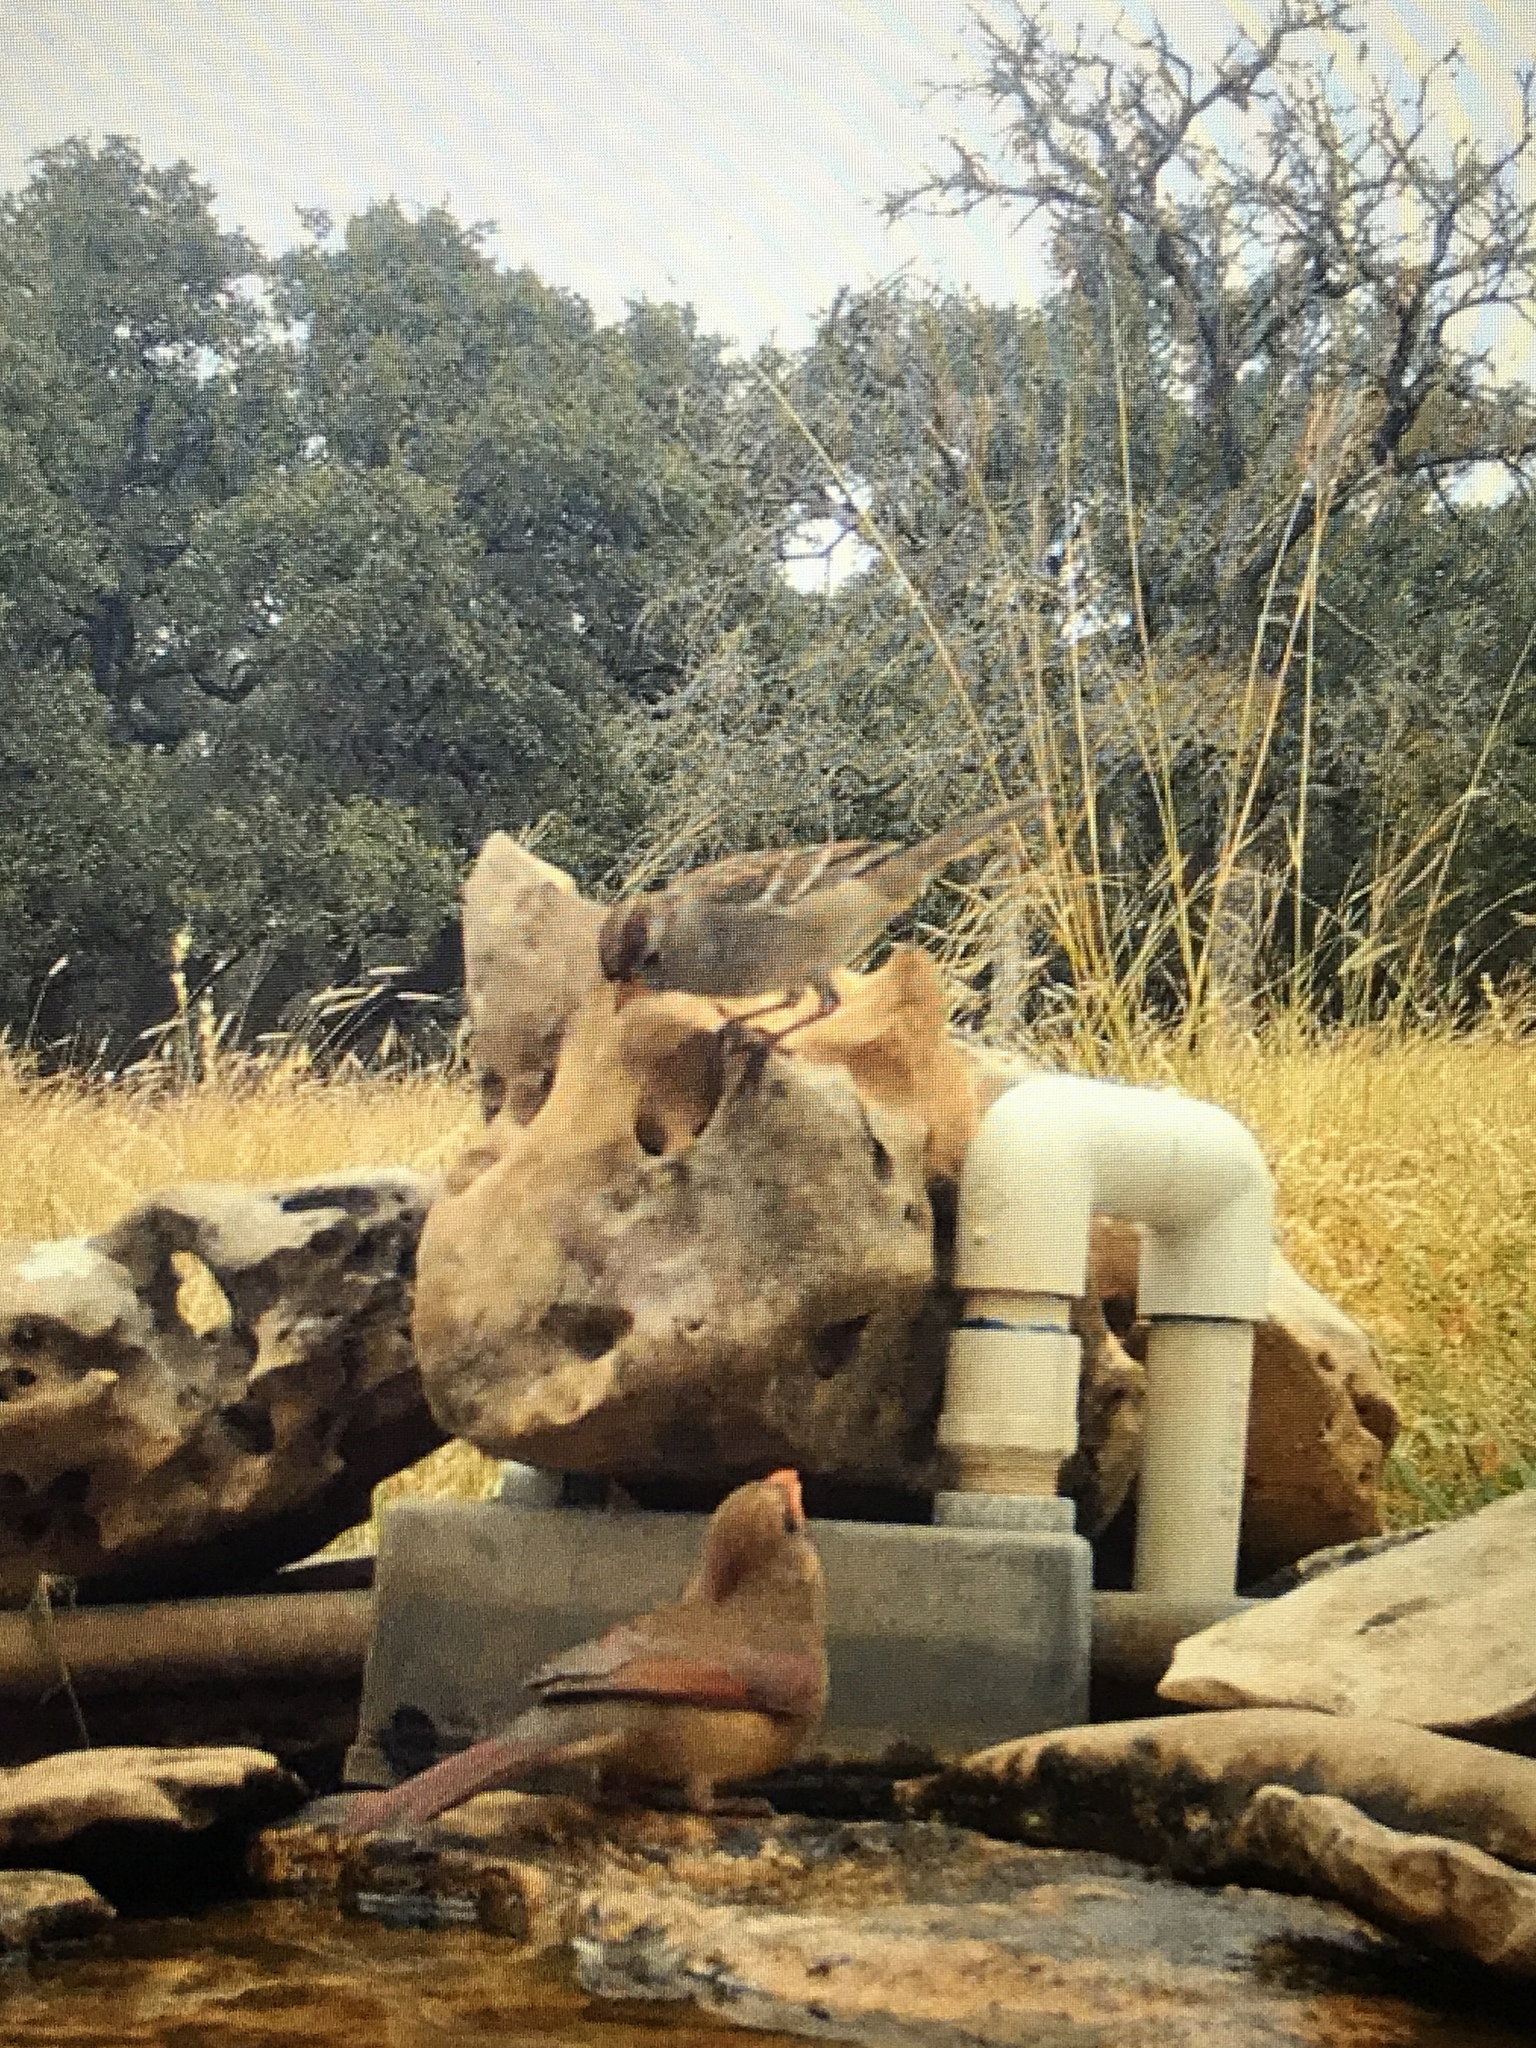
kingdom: Animalia
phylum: Chordata
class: Aves
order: Passeriformes
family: Passerellidae
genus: Zonotrichia
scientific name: Zonotrichia leucophrys
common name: White-crowned sparrow
